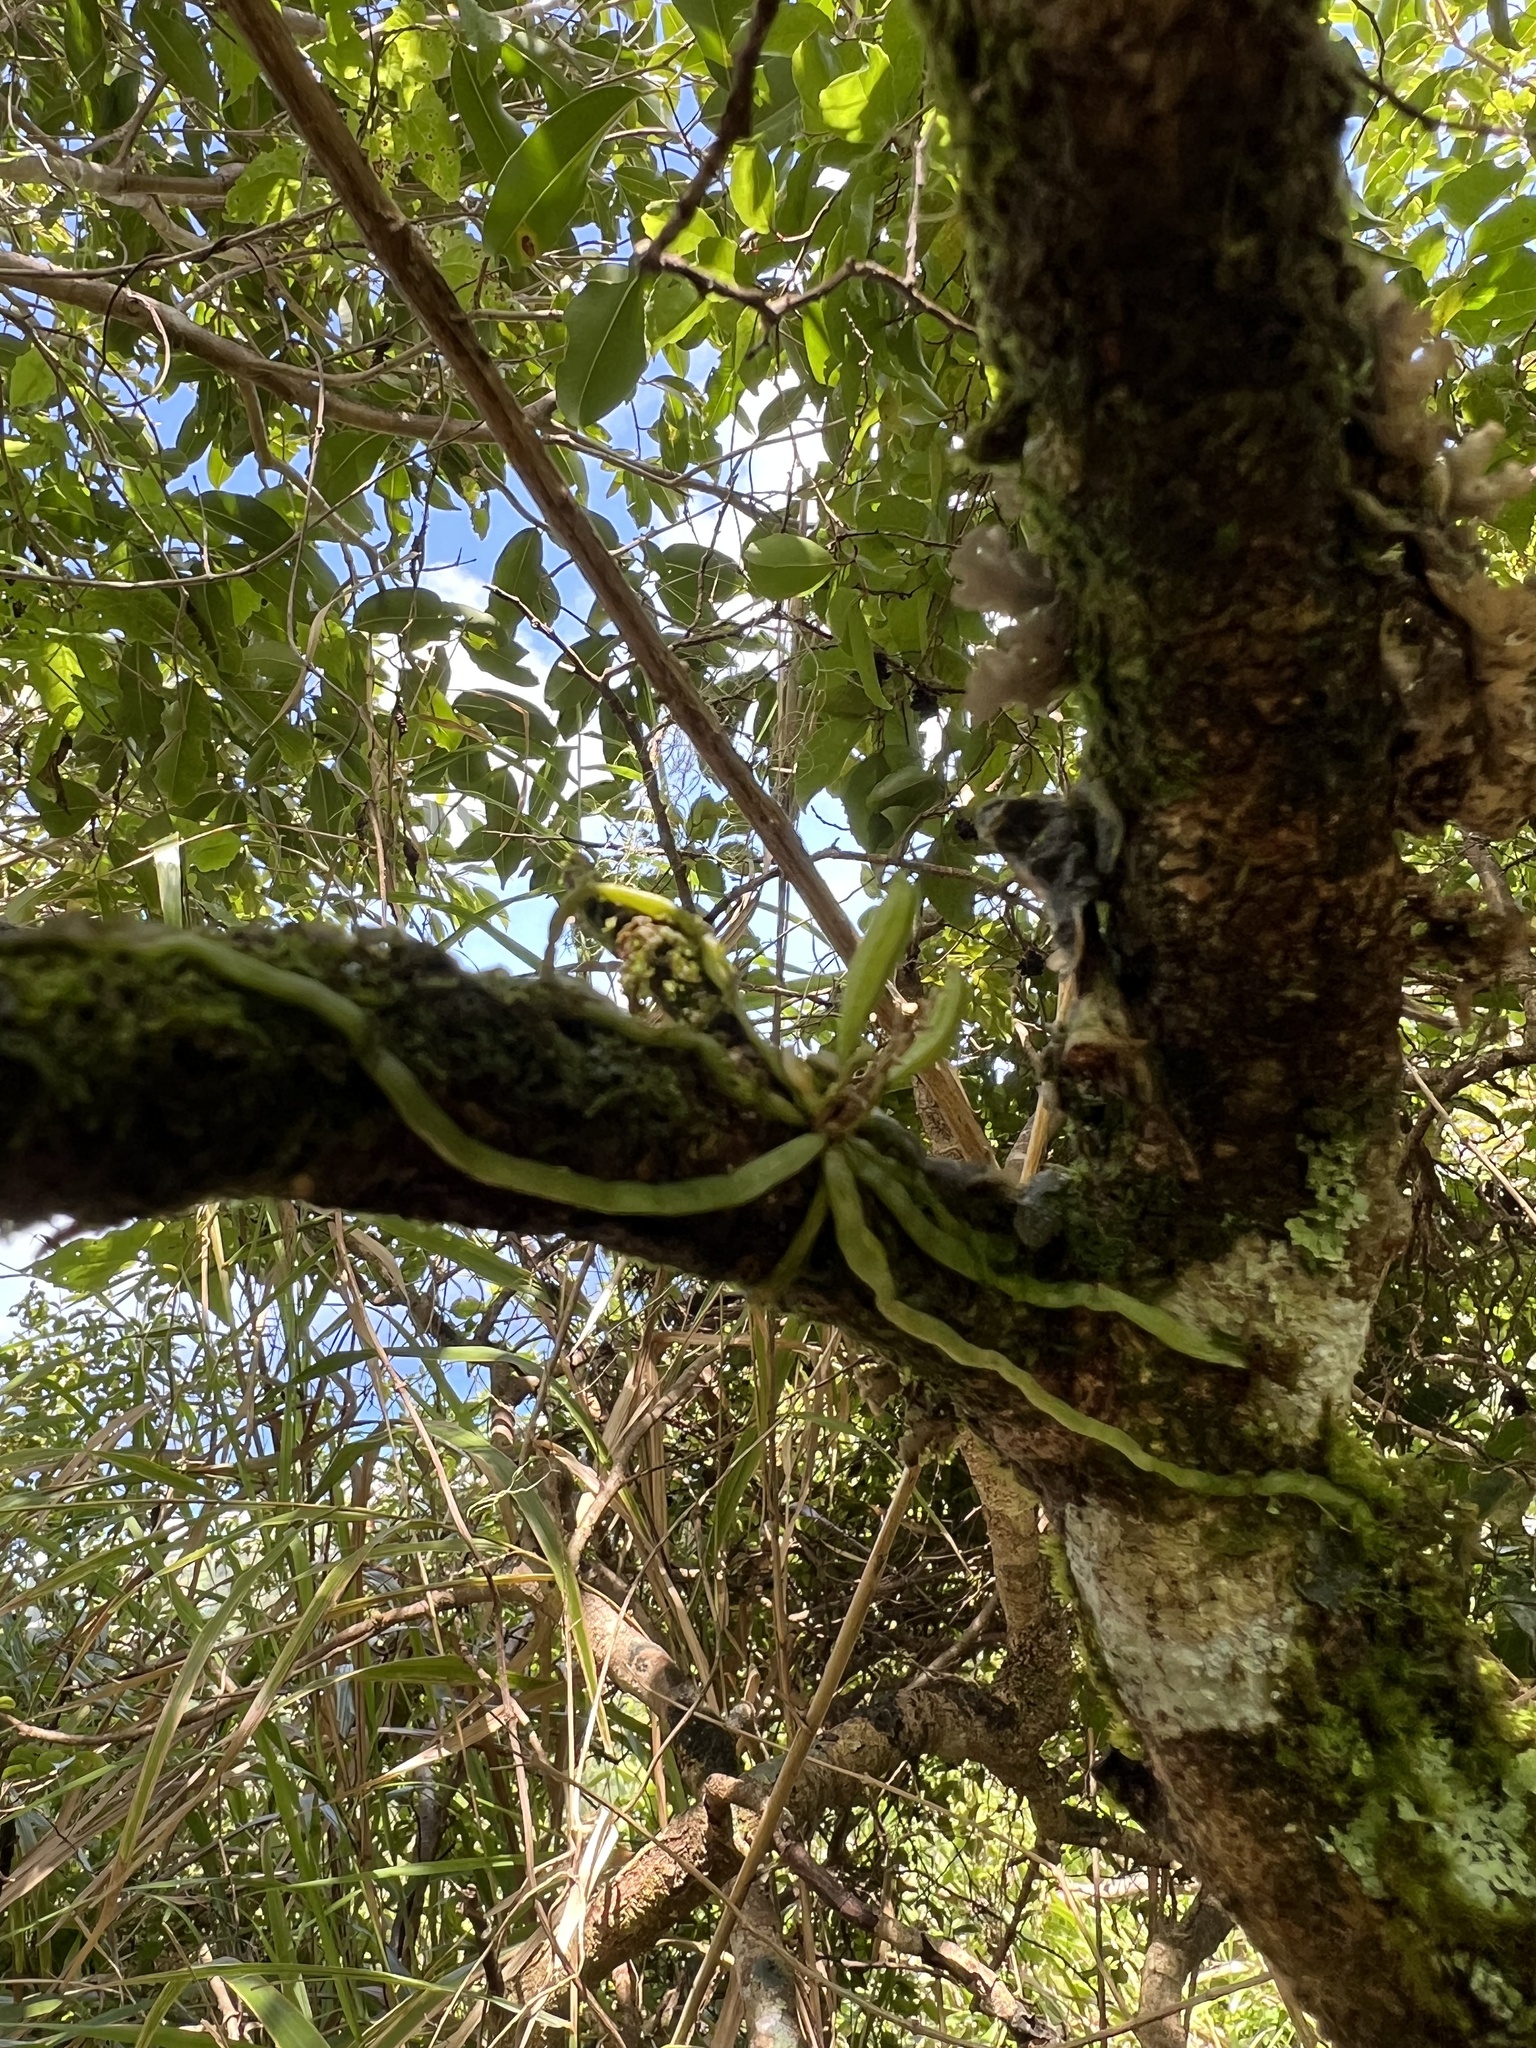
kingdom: Plantae
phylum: Tracheophyta
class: Liliopsida
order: Asparagales
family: Orchidaceae
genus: Taeniophyllum
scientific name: Taeniophyllum fasciola
